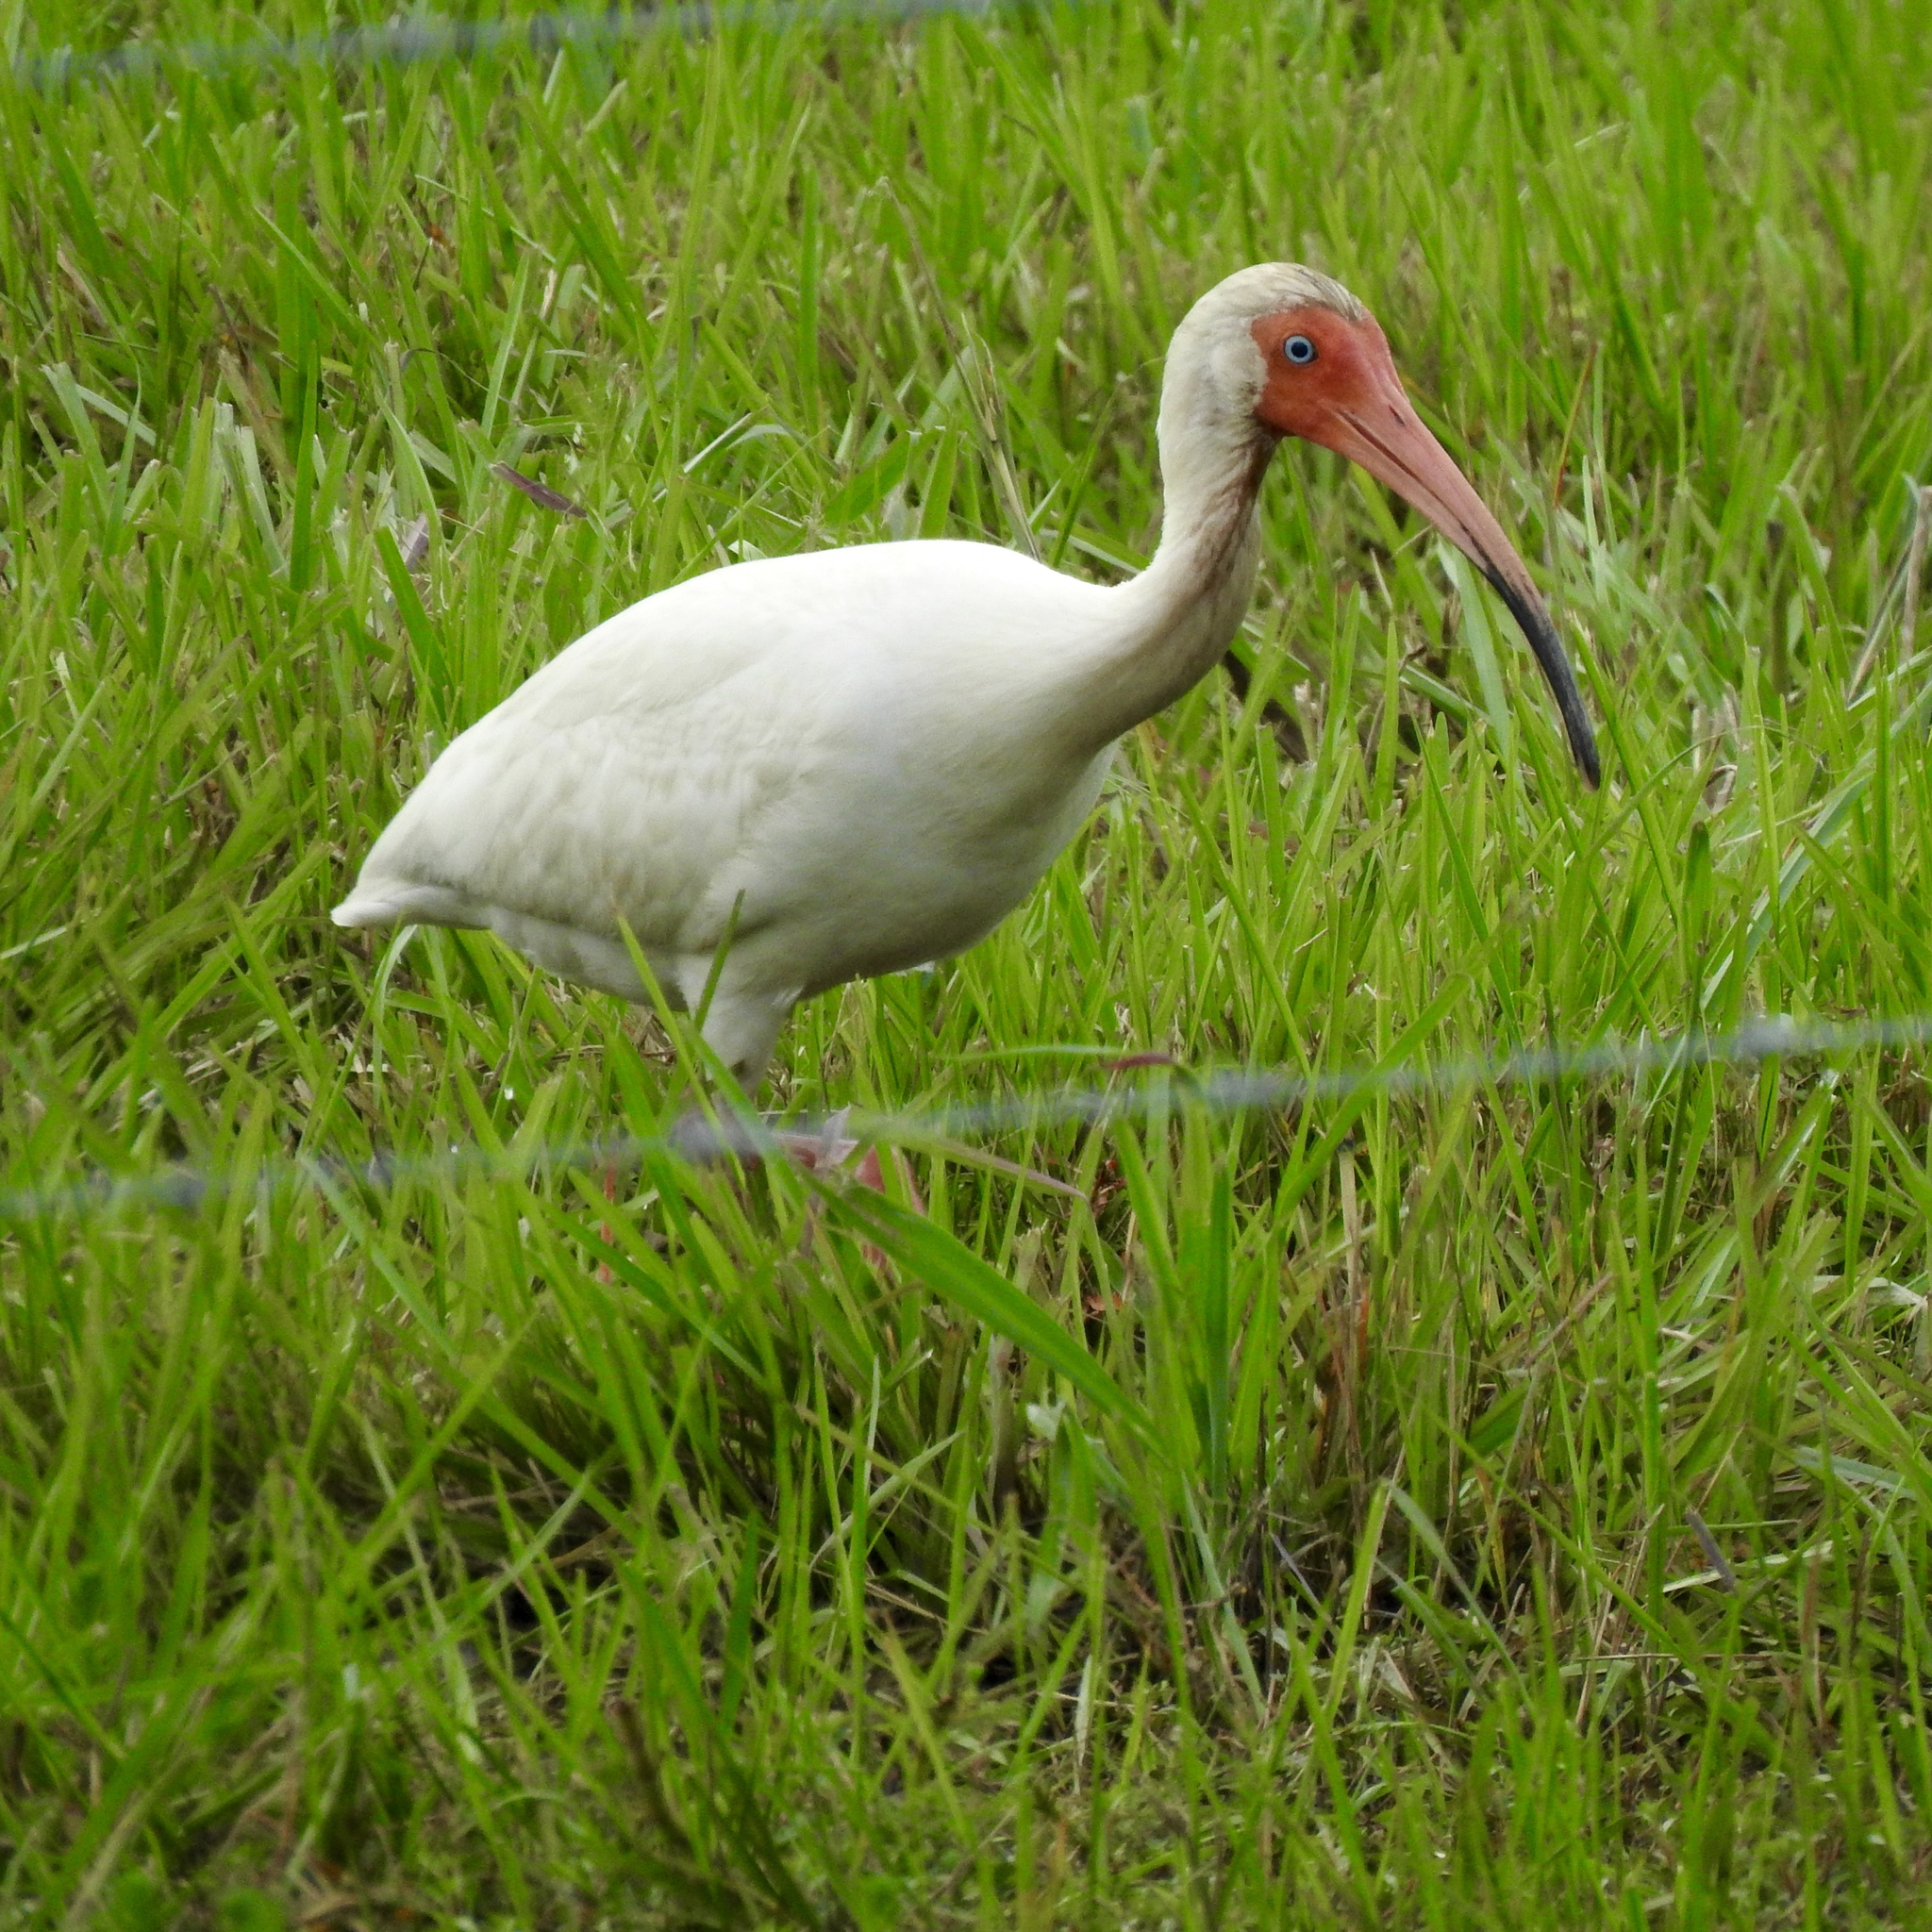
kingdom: Animalia
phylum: Chordata
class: Aves
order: Pelecaniformes
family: Threskiornithidae
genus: Eudocimus
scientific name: Eudocimus albus
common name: White ibis
